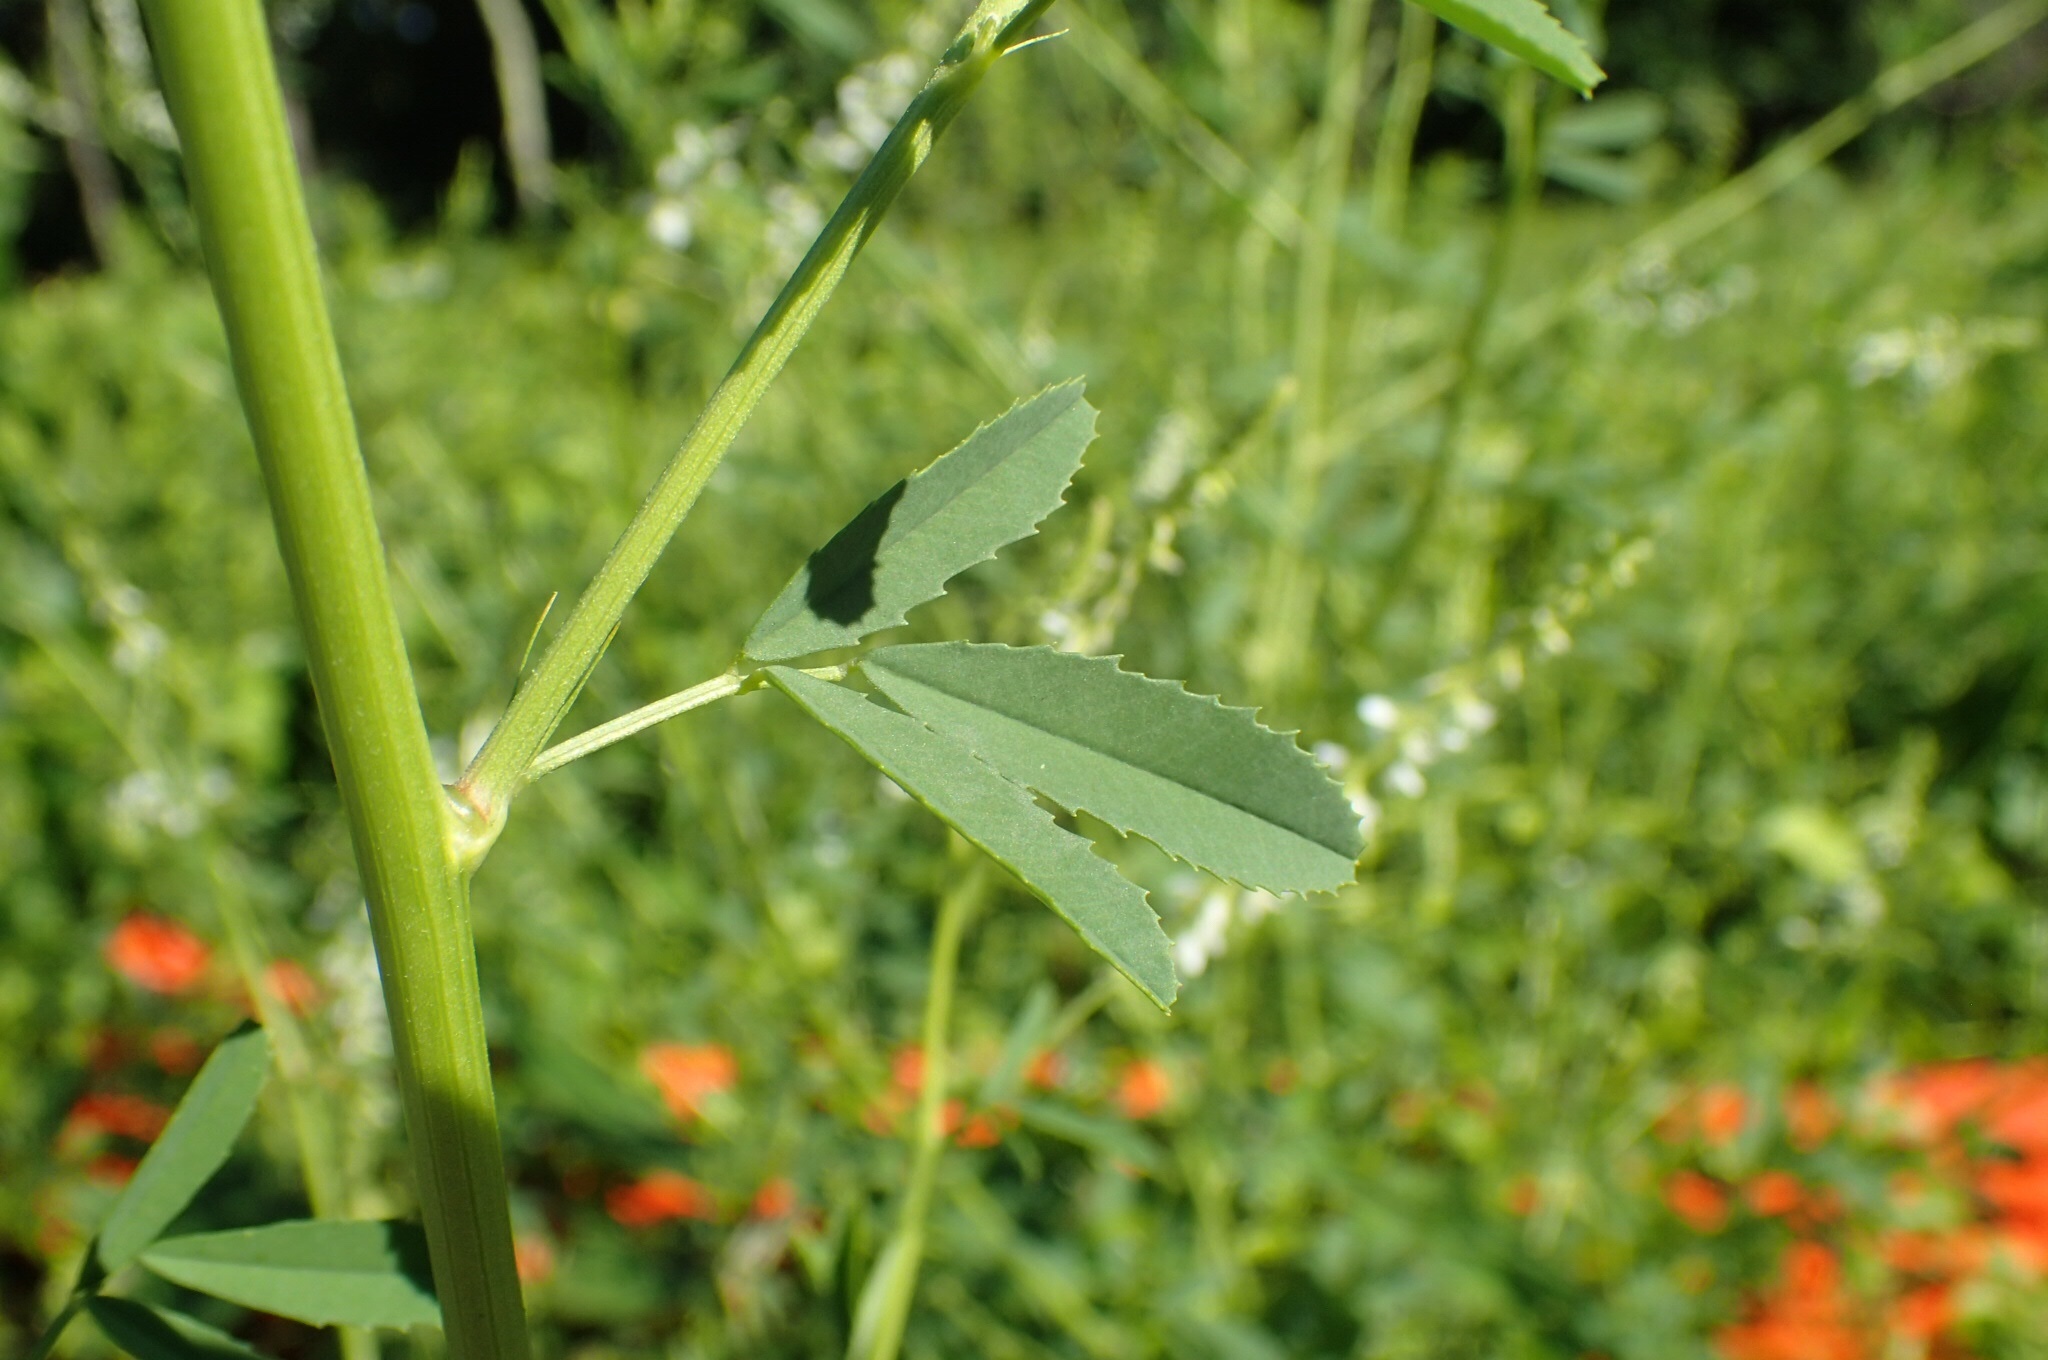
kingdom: Plantae
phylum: Tracheophyta
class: Magnoliopsida
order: Fabales
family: Fabaceae
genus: Melilotus
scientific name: Melilotus albus
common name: White melilot
